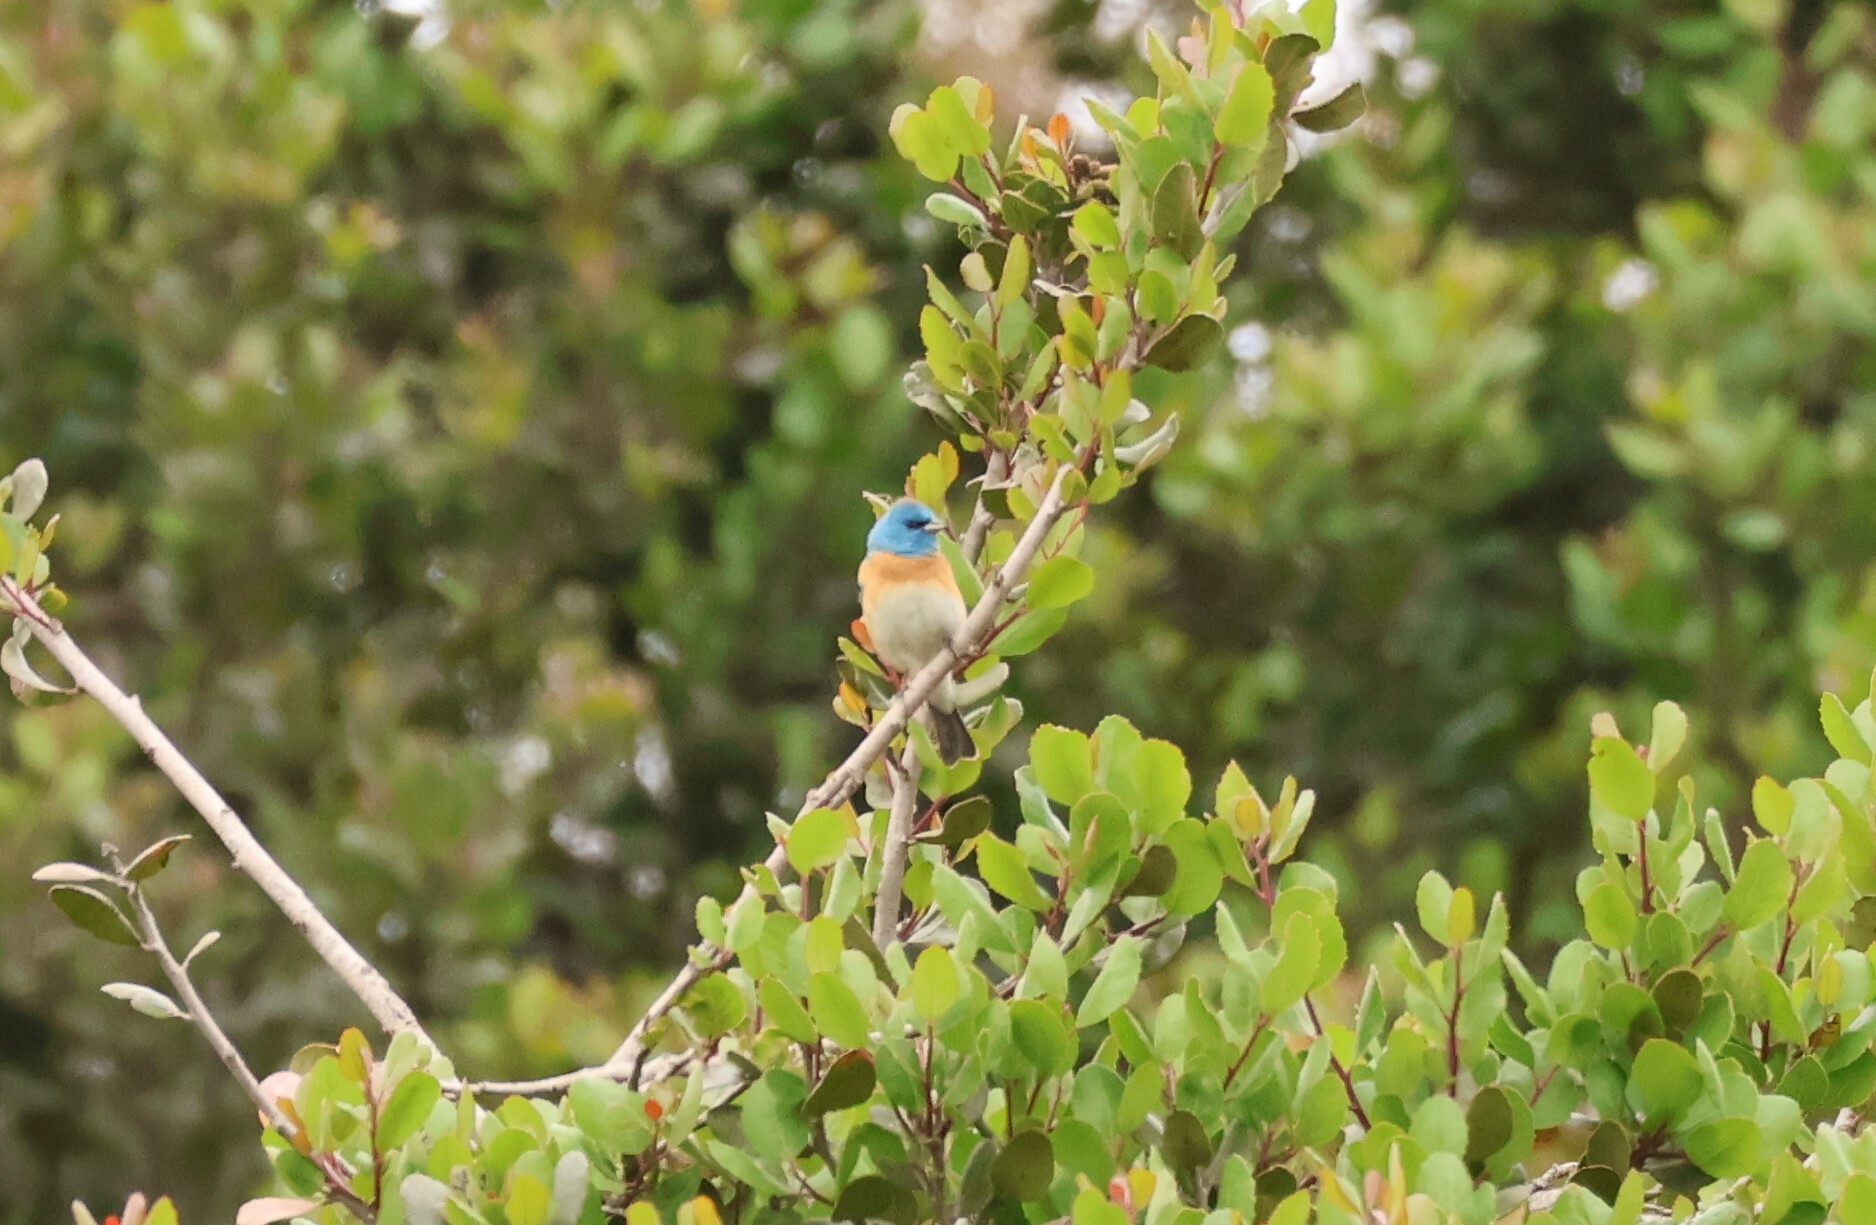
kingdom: Animalia
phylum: Chordata
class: Aves
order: Passeriformes
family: Cardinalidae
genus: Passerina
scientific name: Passerina amoena
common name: Lazuli bunting
